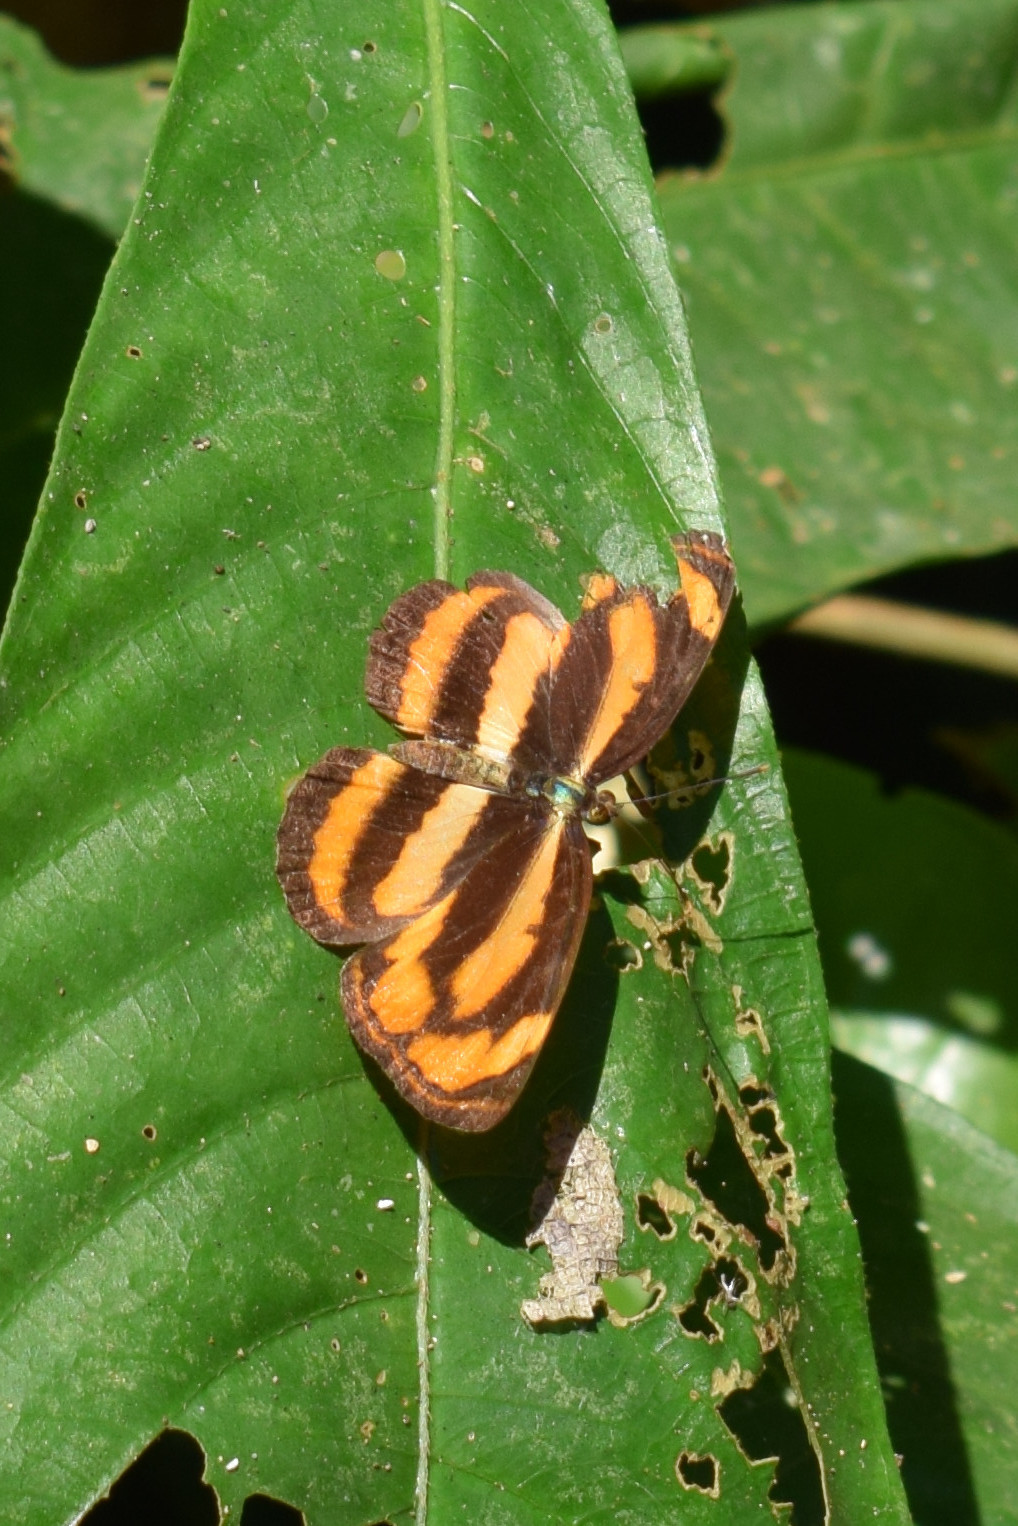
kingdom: Animalia
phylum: Arthropoda
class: Insecta
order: Lepidoptera
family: Nymphalidae
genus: Pantoporia
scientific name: Pantoporia hordonia
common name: Common lascar
